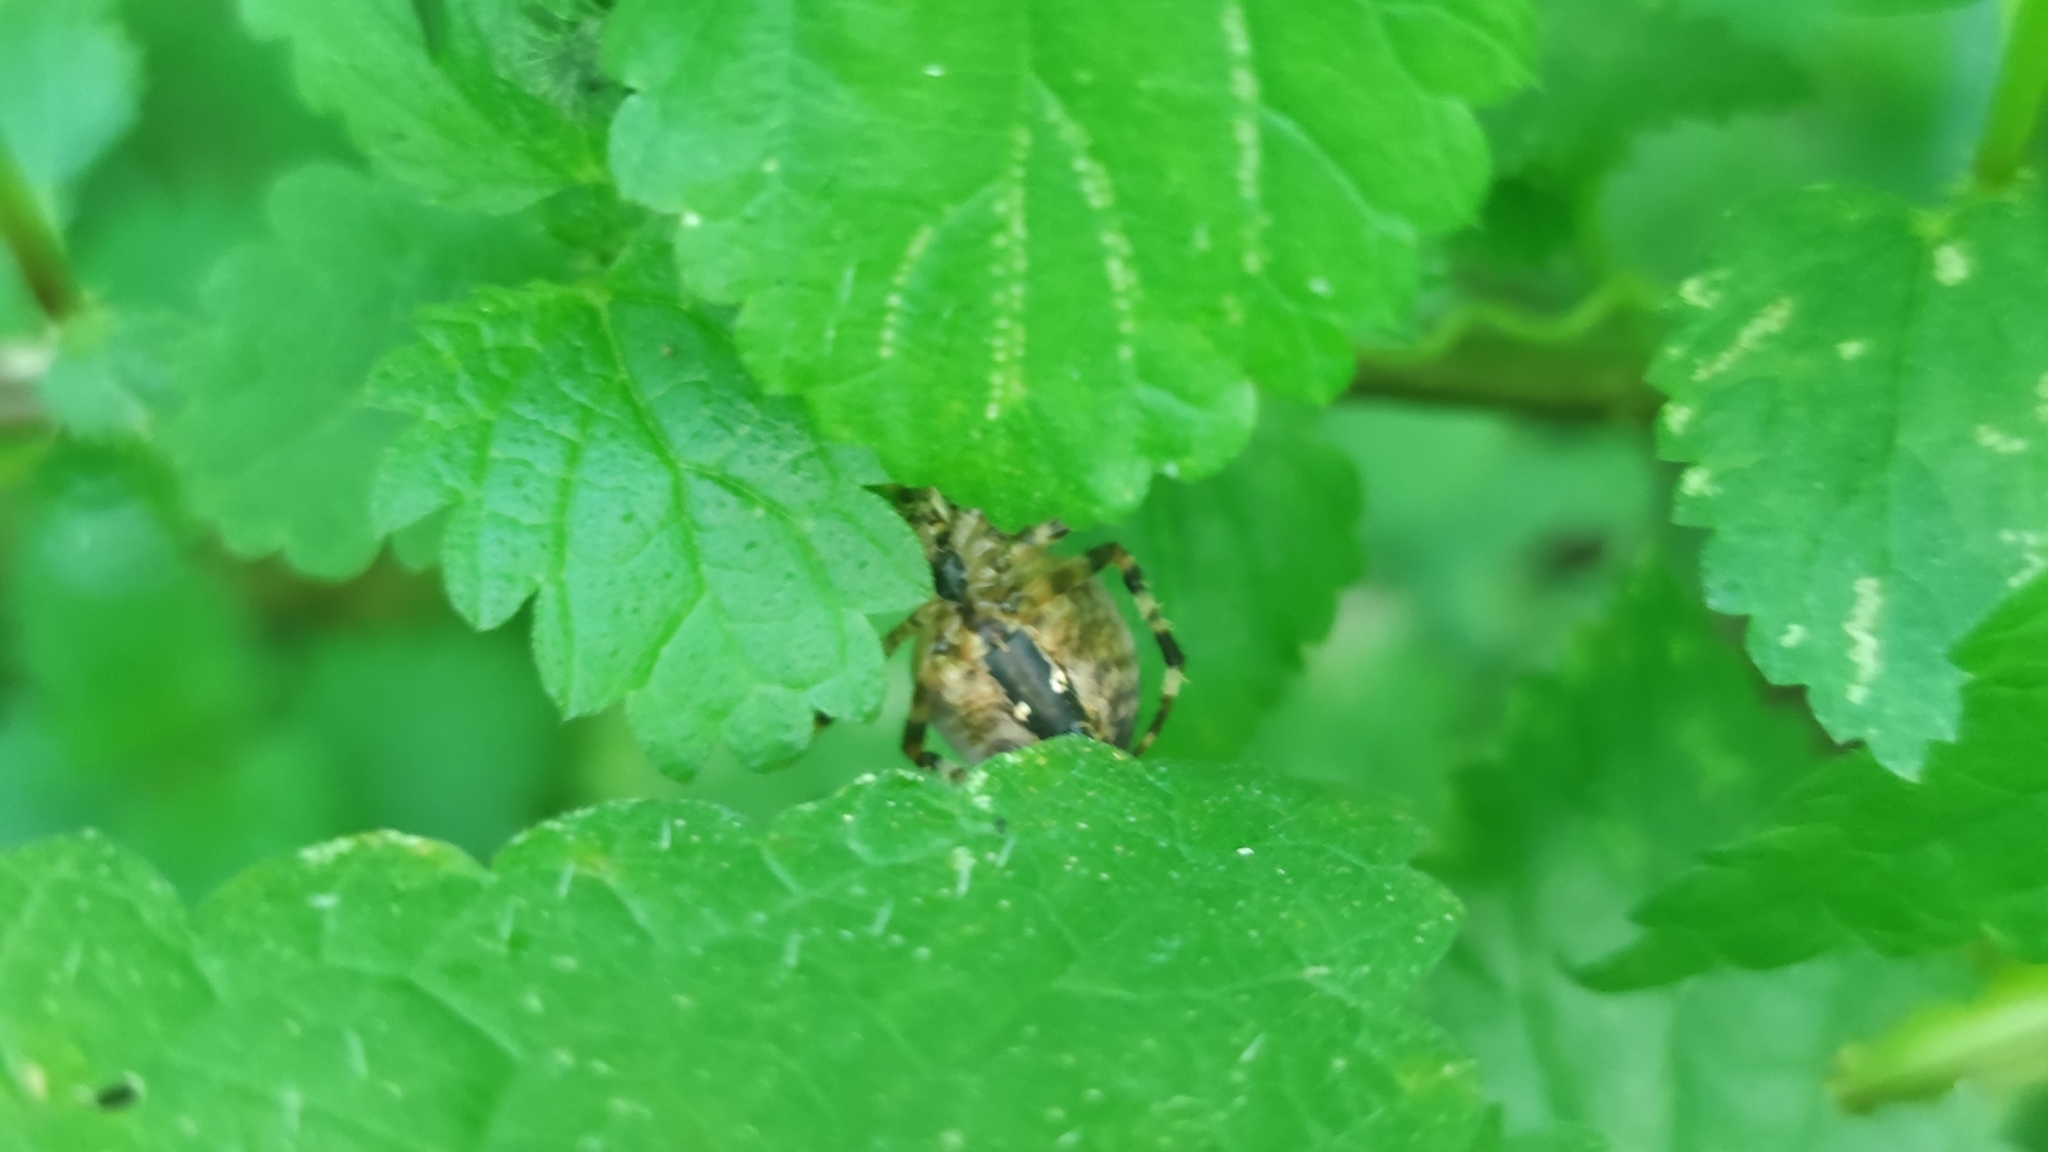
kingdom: Animalia
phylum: Arthropoda
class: Arachnida
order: Araneae
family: Araneidae
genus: Araneus
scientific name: Araneus diadematus
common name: Cross orbweaver
